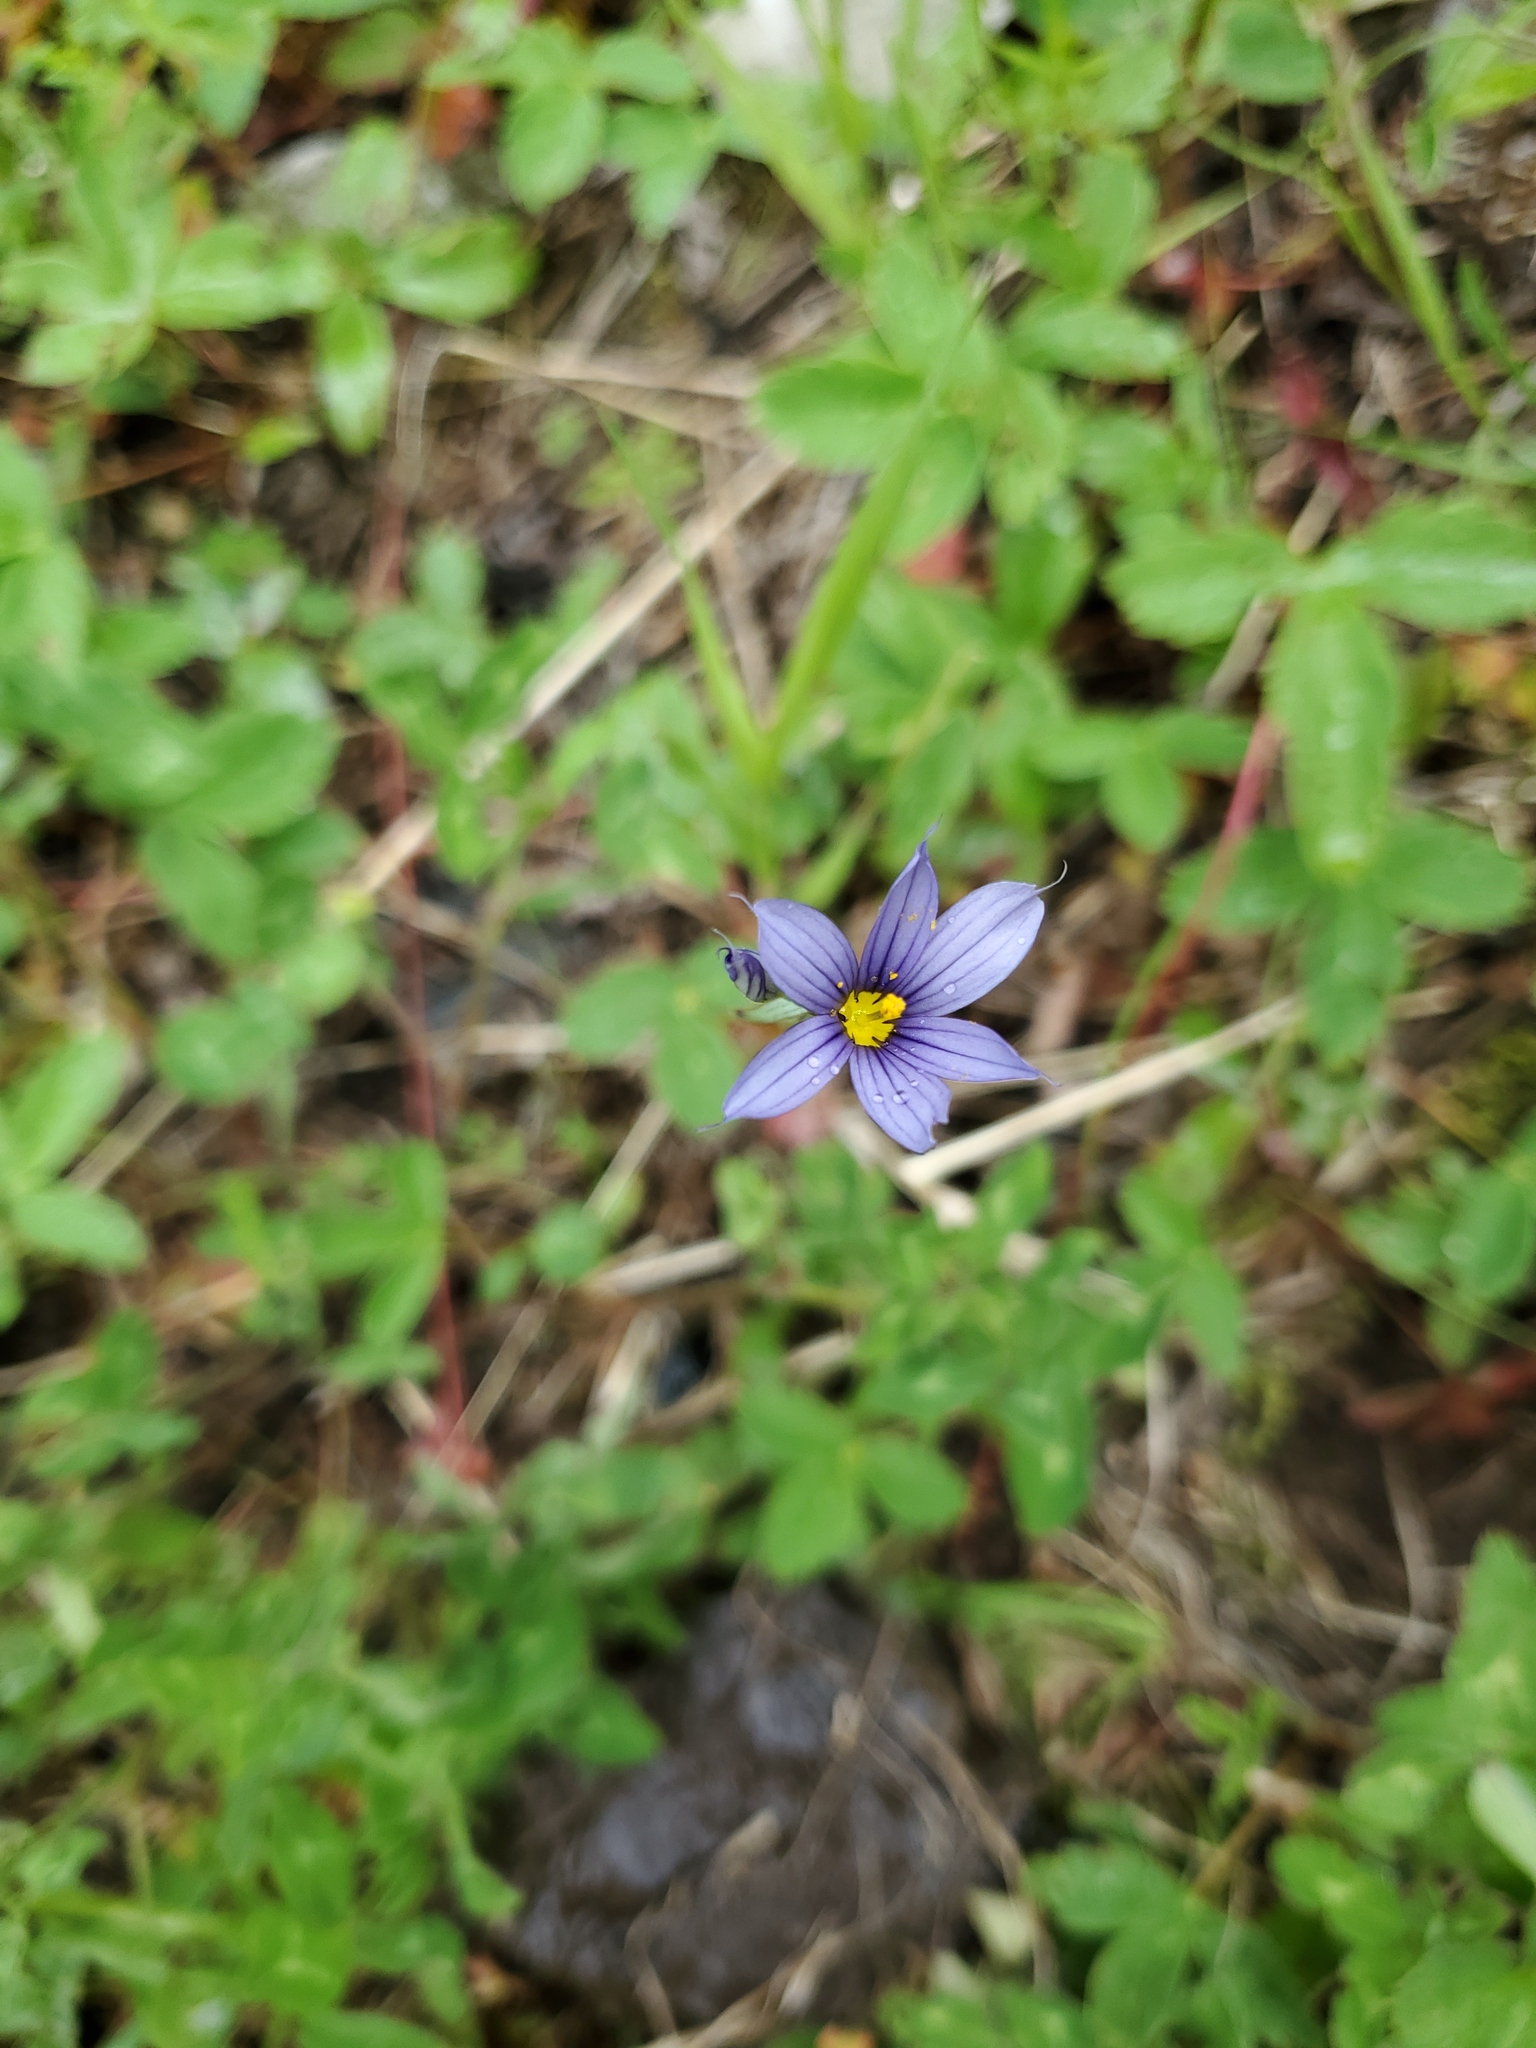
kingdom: Plantae
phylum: Tracheophyta
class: Liliopsida
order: Asparagales
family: Iridaceae
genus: Sisyrinchium
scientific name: Sisyrinchium montanum
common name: American blue-eyed-grass
